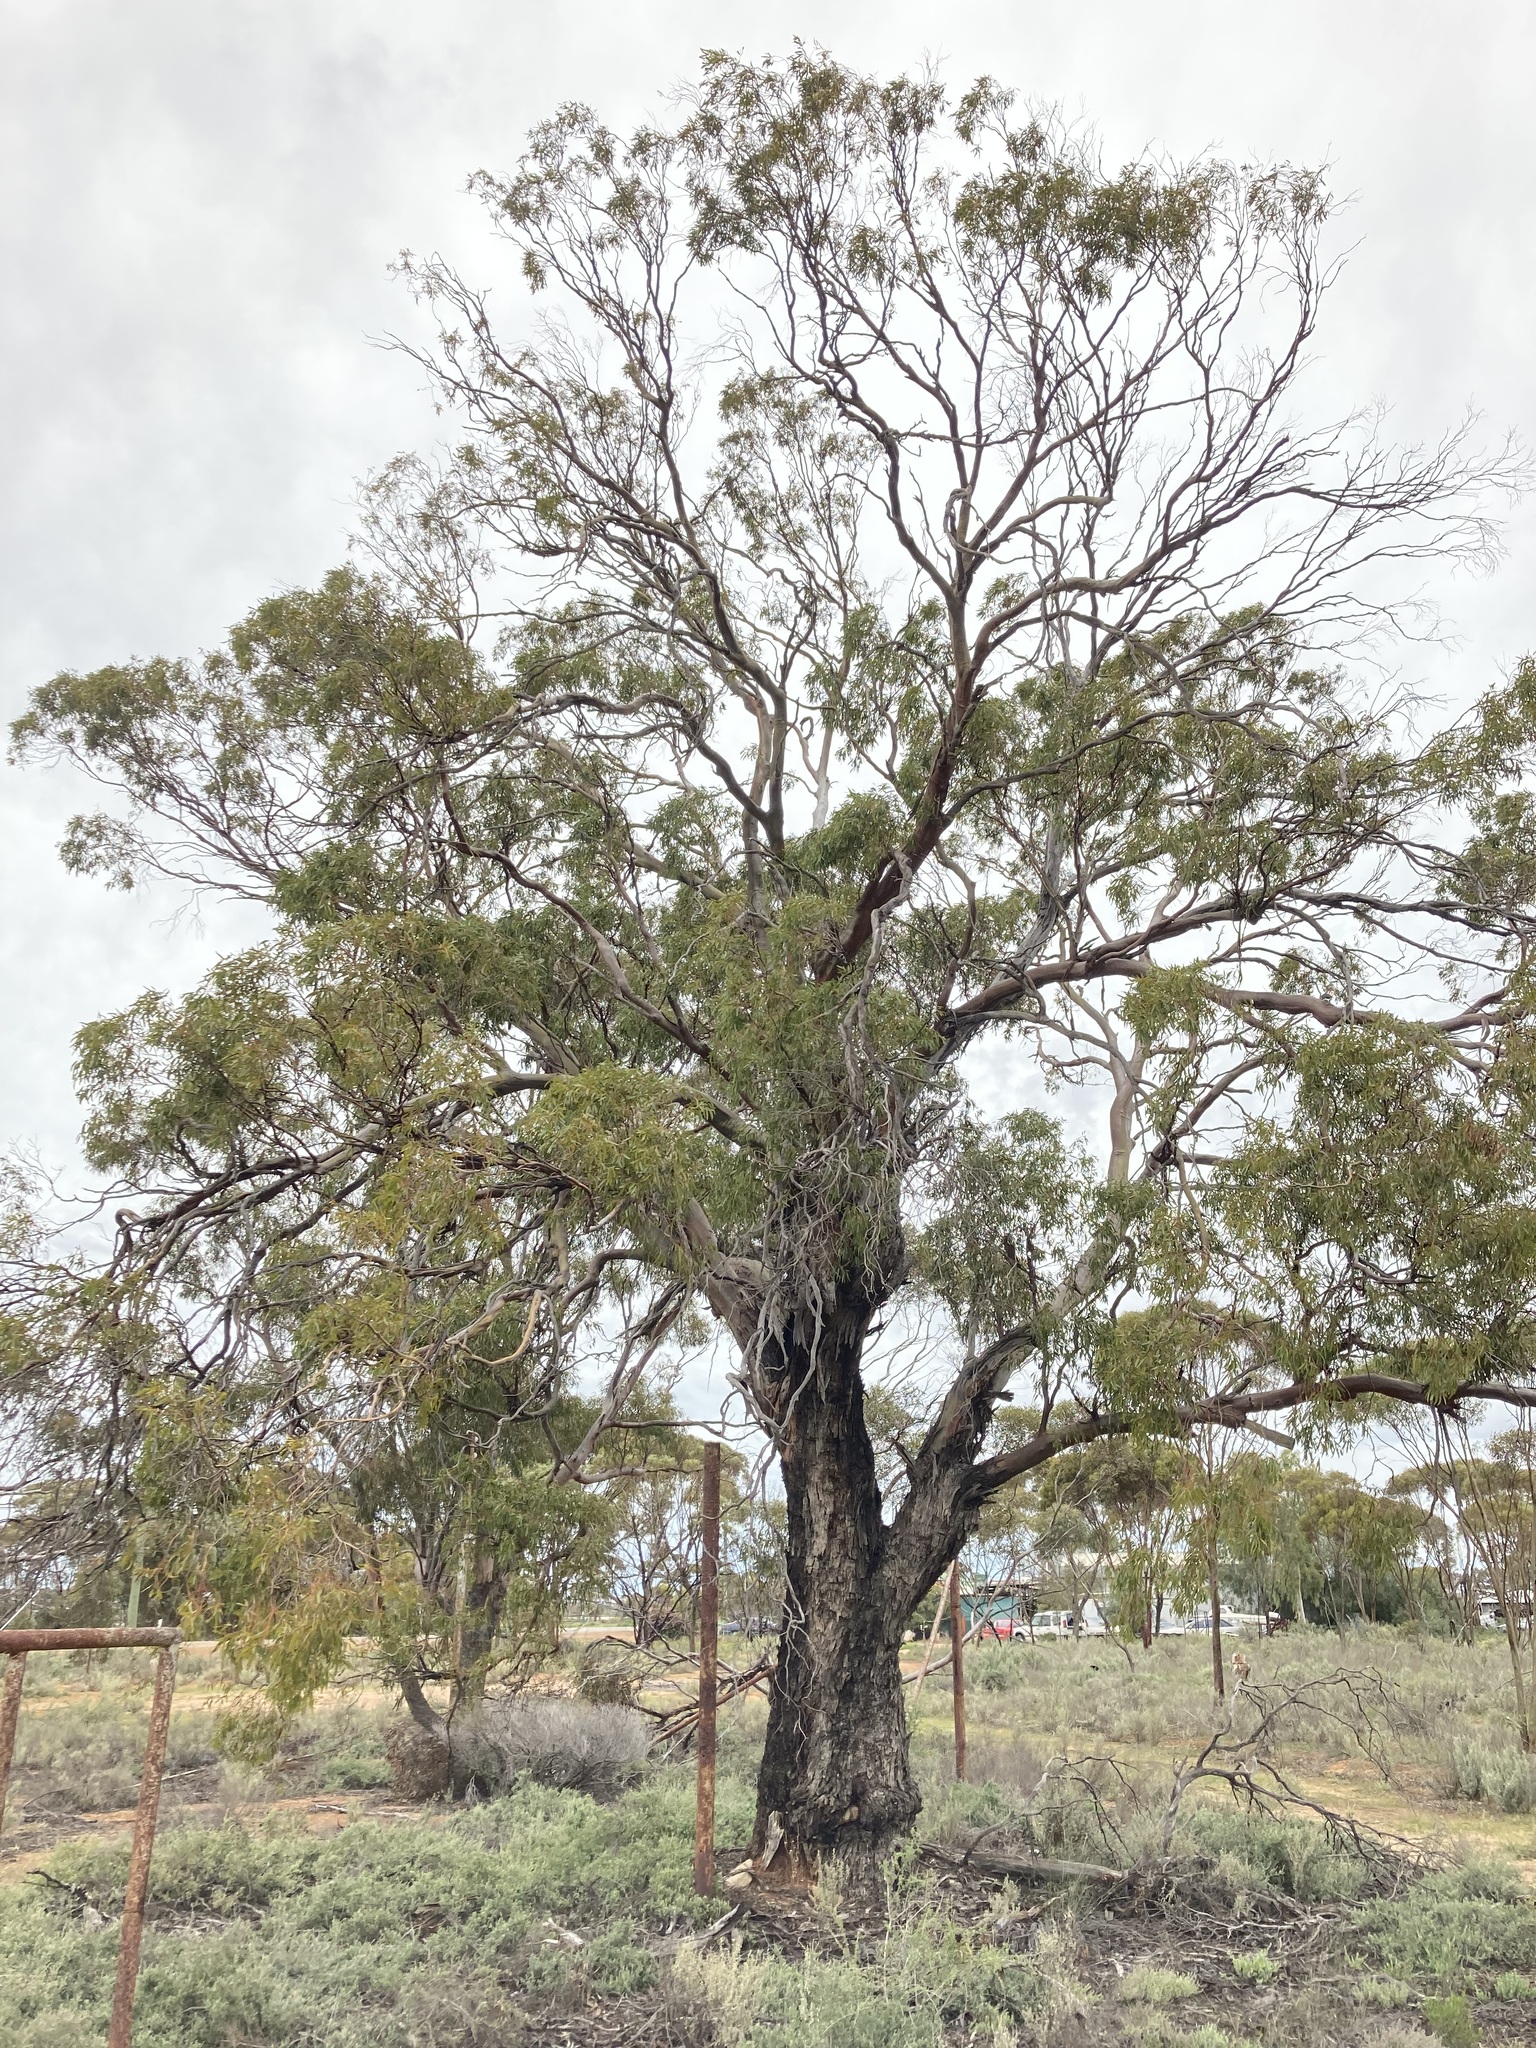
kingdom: Plantae
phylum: Tracheophyta
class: Magnoliopsida
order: Myrtales
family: Myrtaceae
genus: Eucalyptus
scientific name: Eucalyptus myriadena
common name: Small-fruited gum
